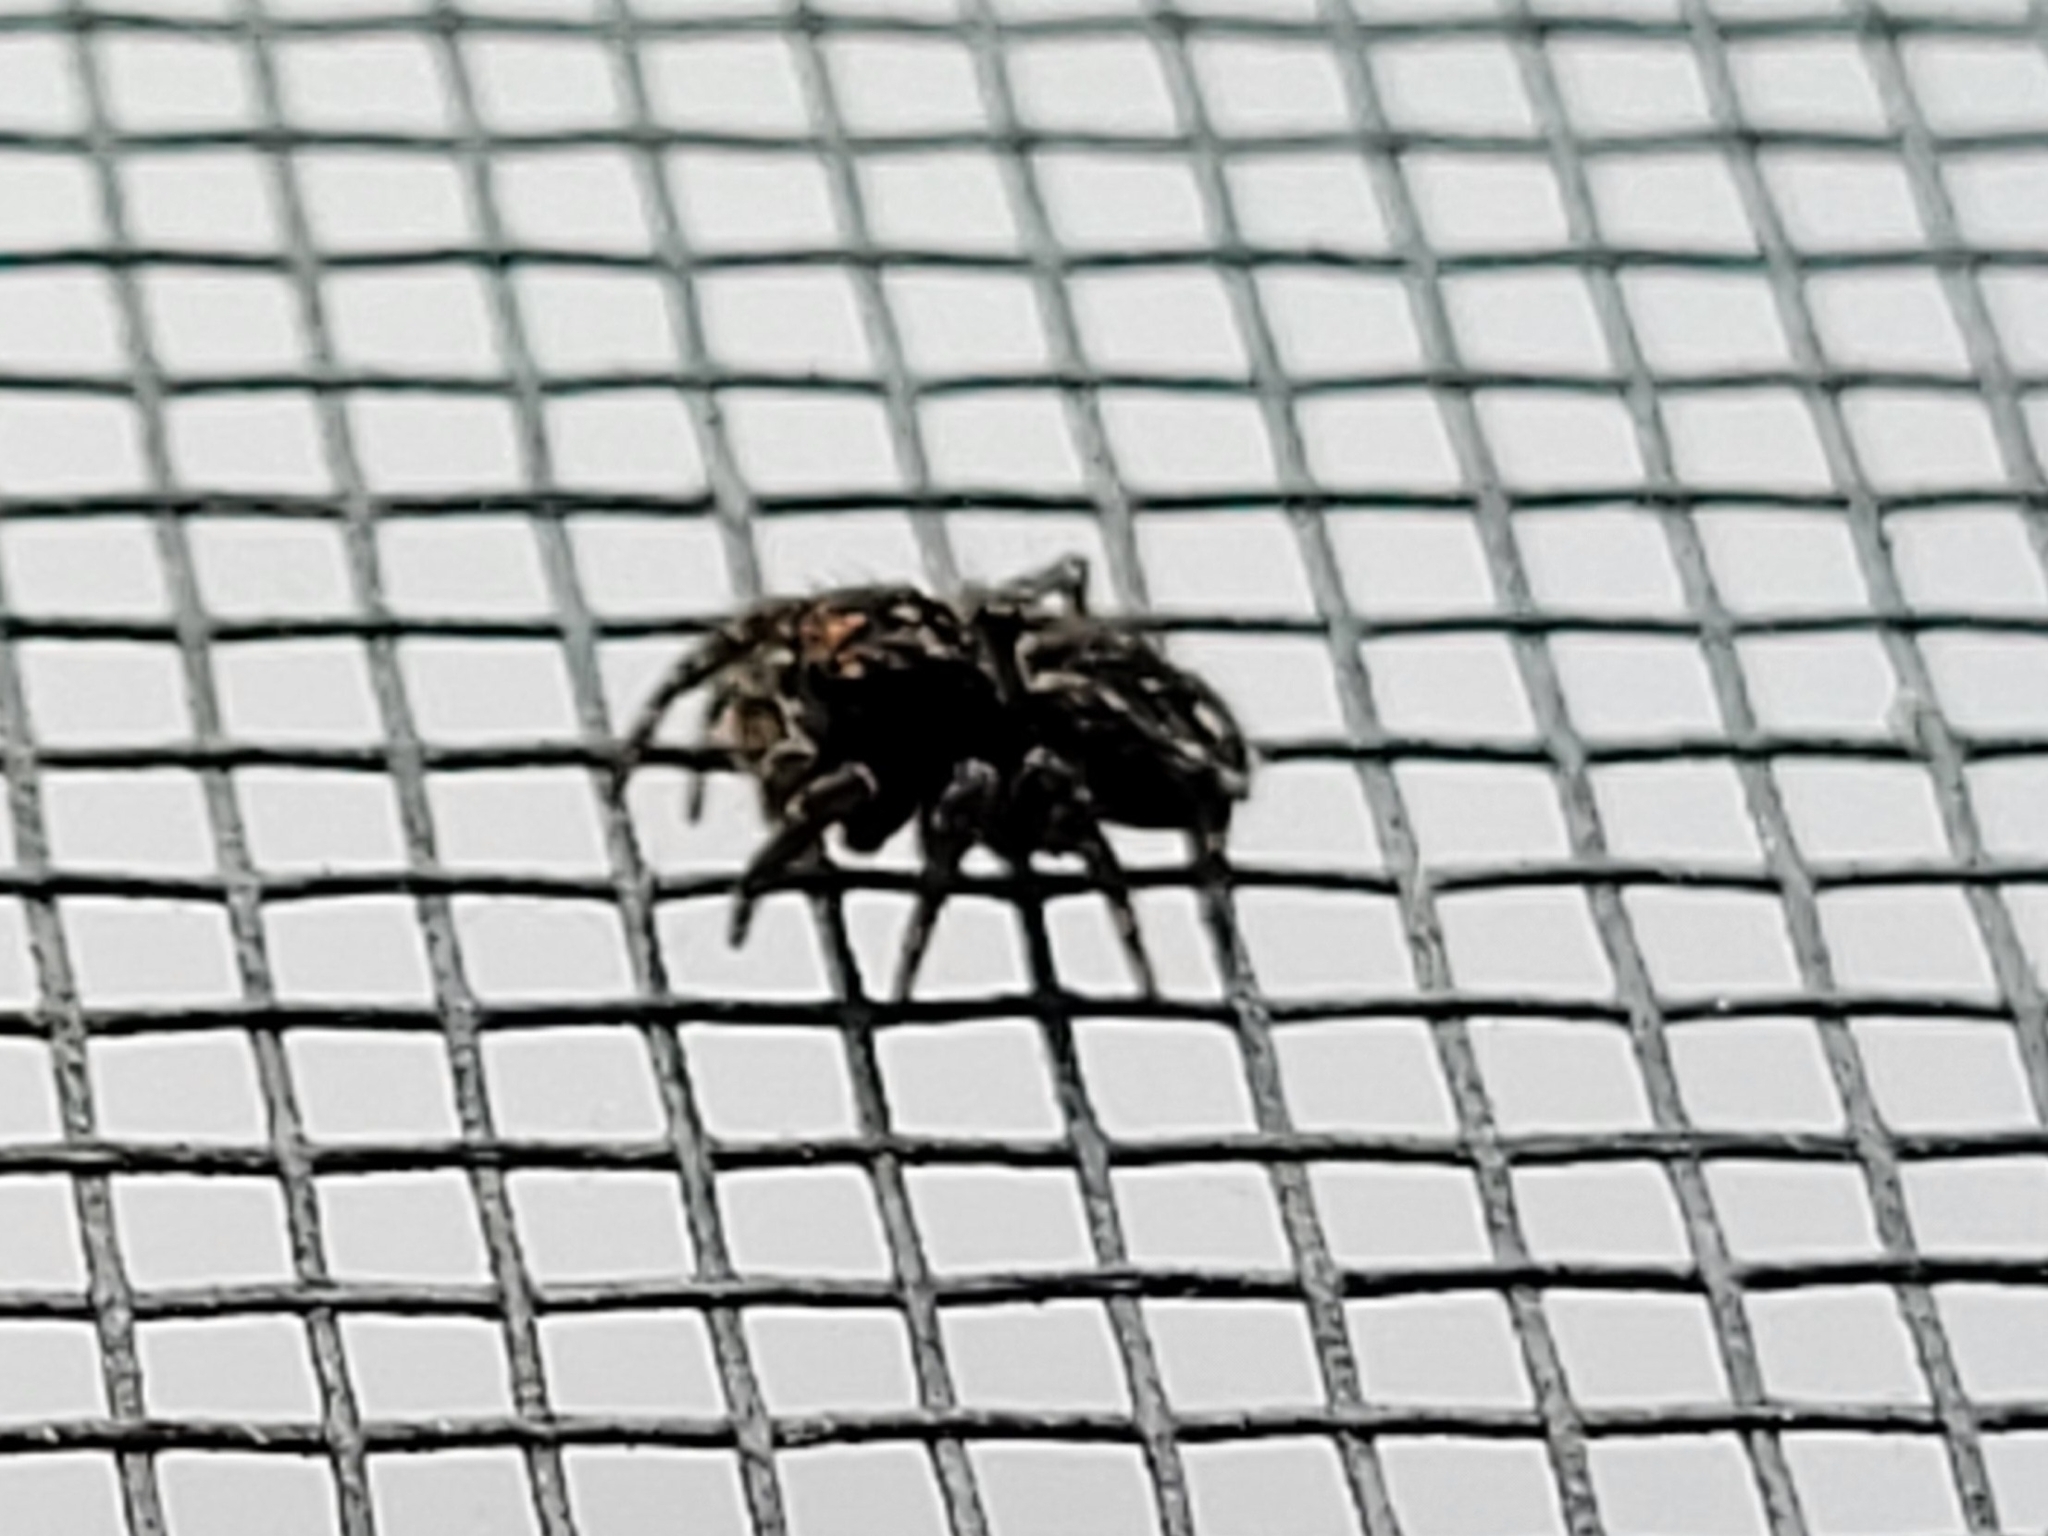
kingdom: Animalia
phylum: Arthropoda
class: Arachnida
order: Araneae
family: Salticidae
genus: Attulus
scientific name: Attulus pubescens
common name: Jumping spider
